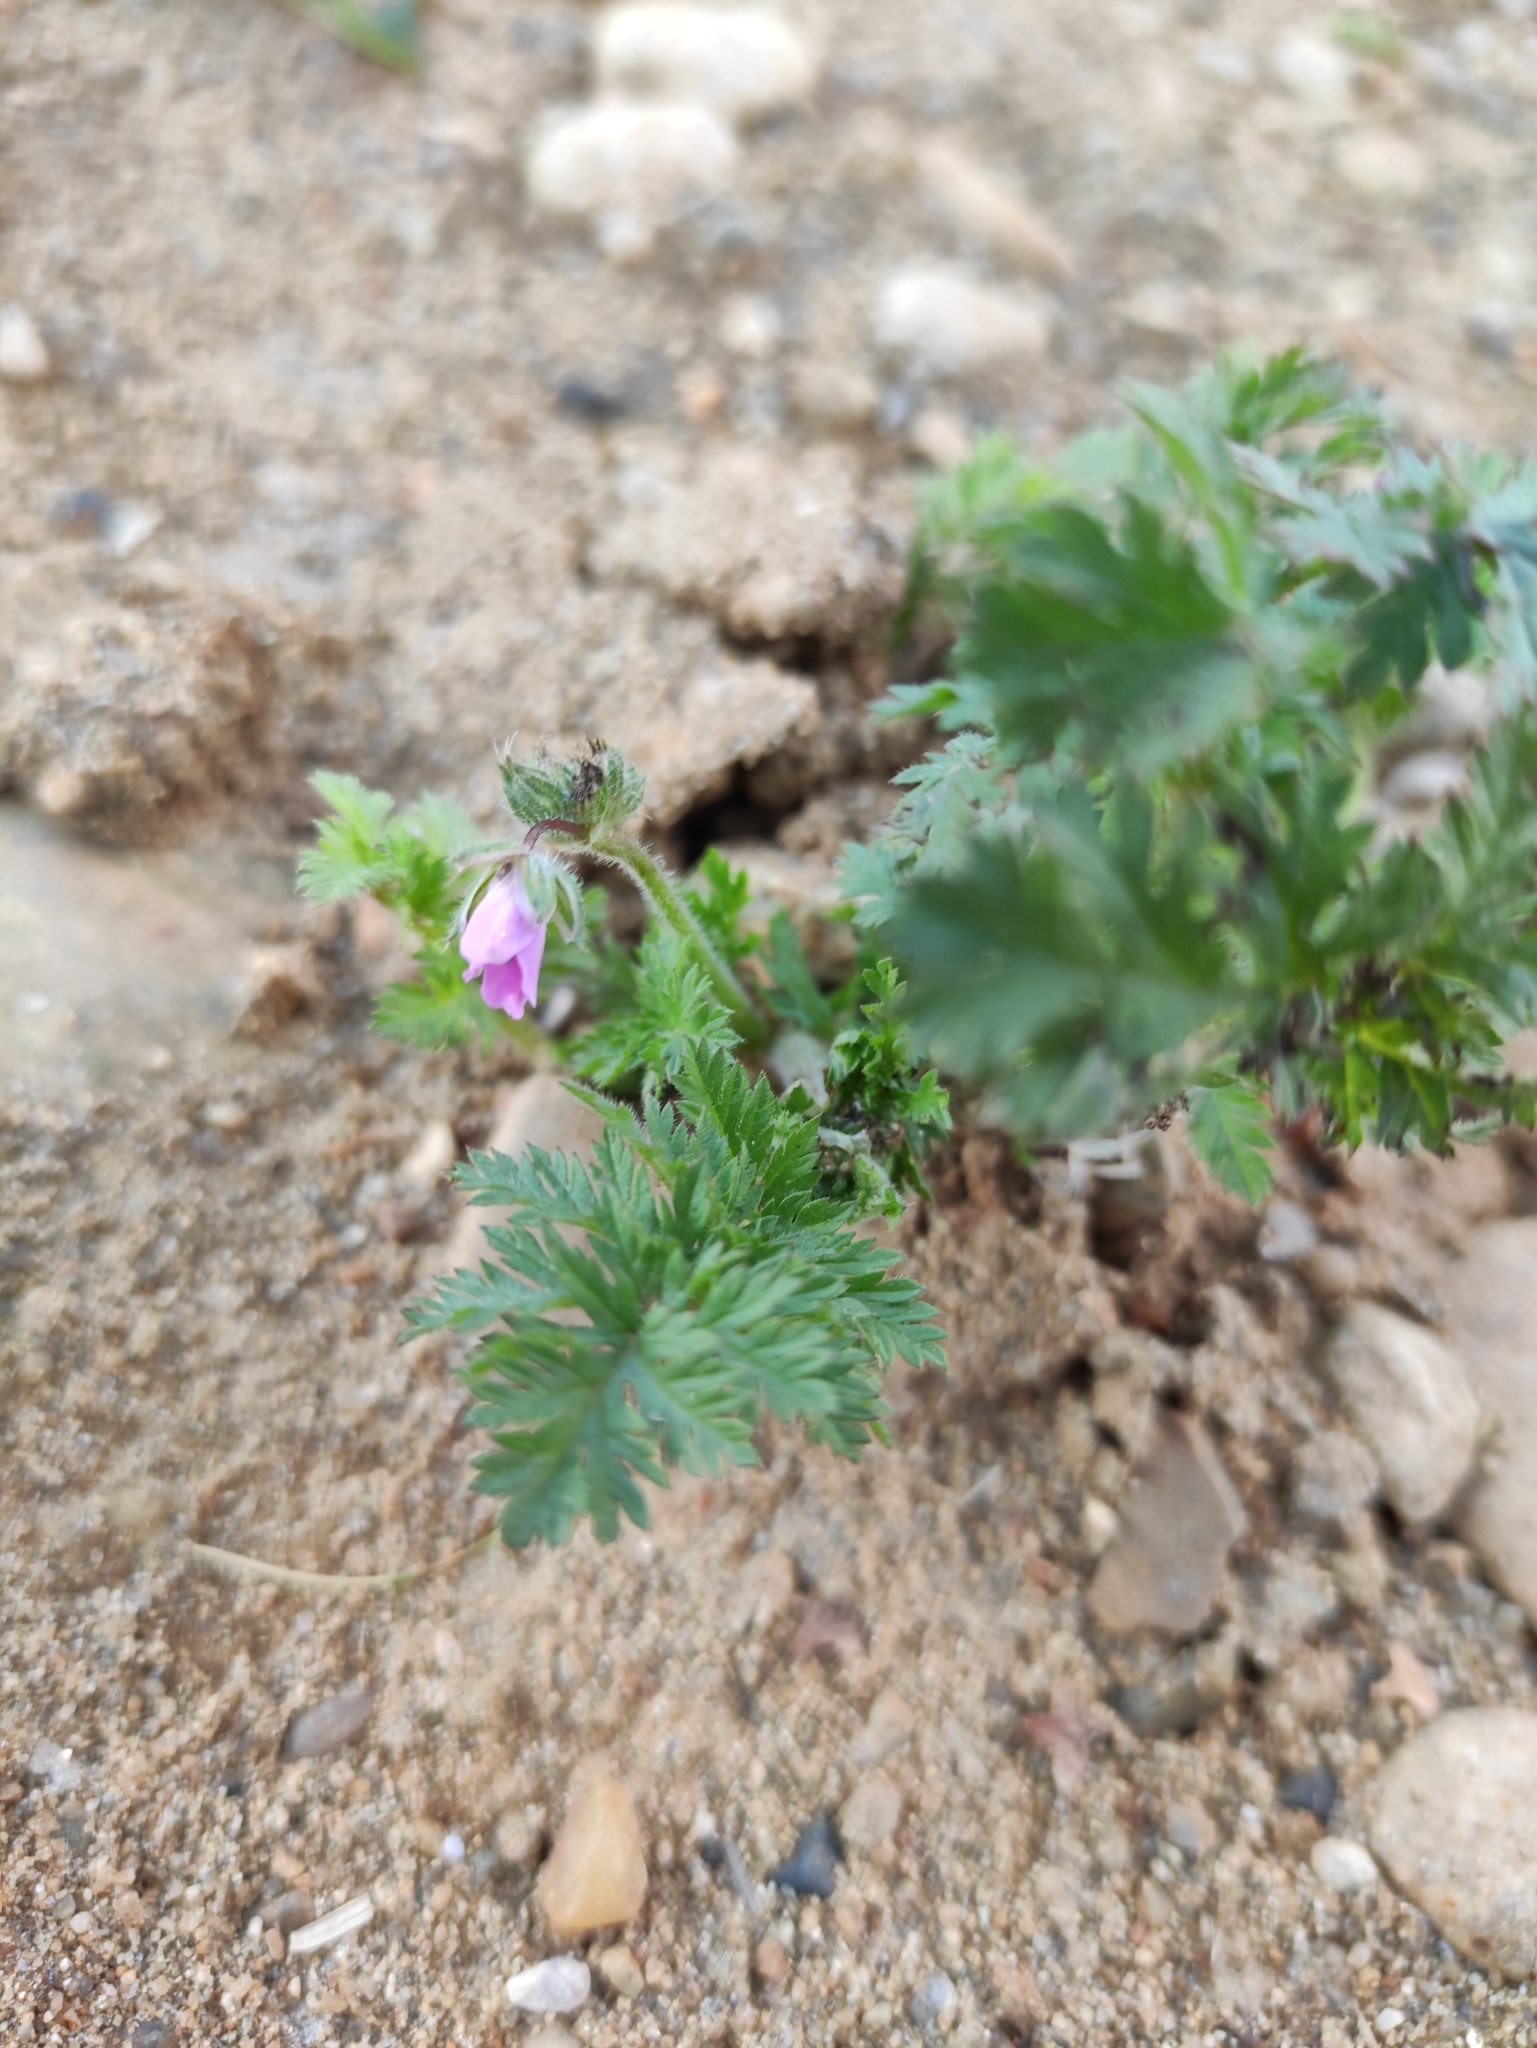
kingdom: Plantae
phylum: Tracheophyta
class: Magnoliopsida
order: Geraniales
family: Geraniaceae
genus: Erodium
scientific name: Erodium cicutarium
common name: Common stork's-bill
